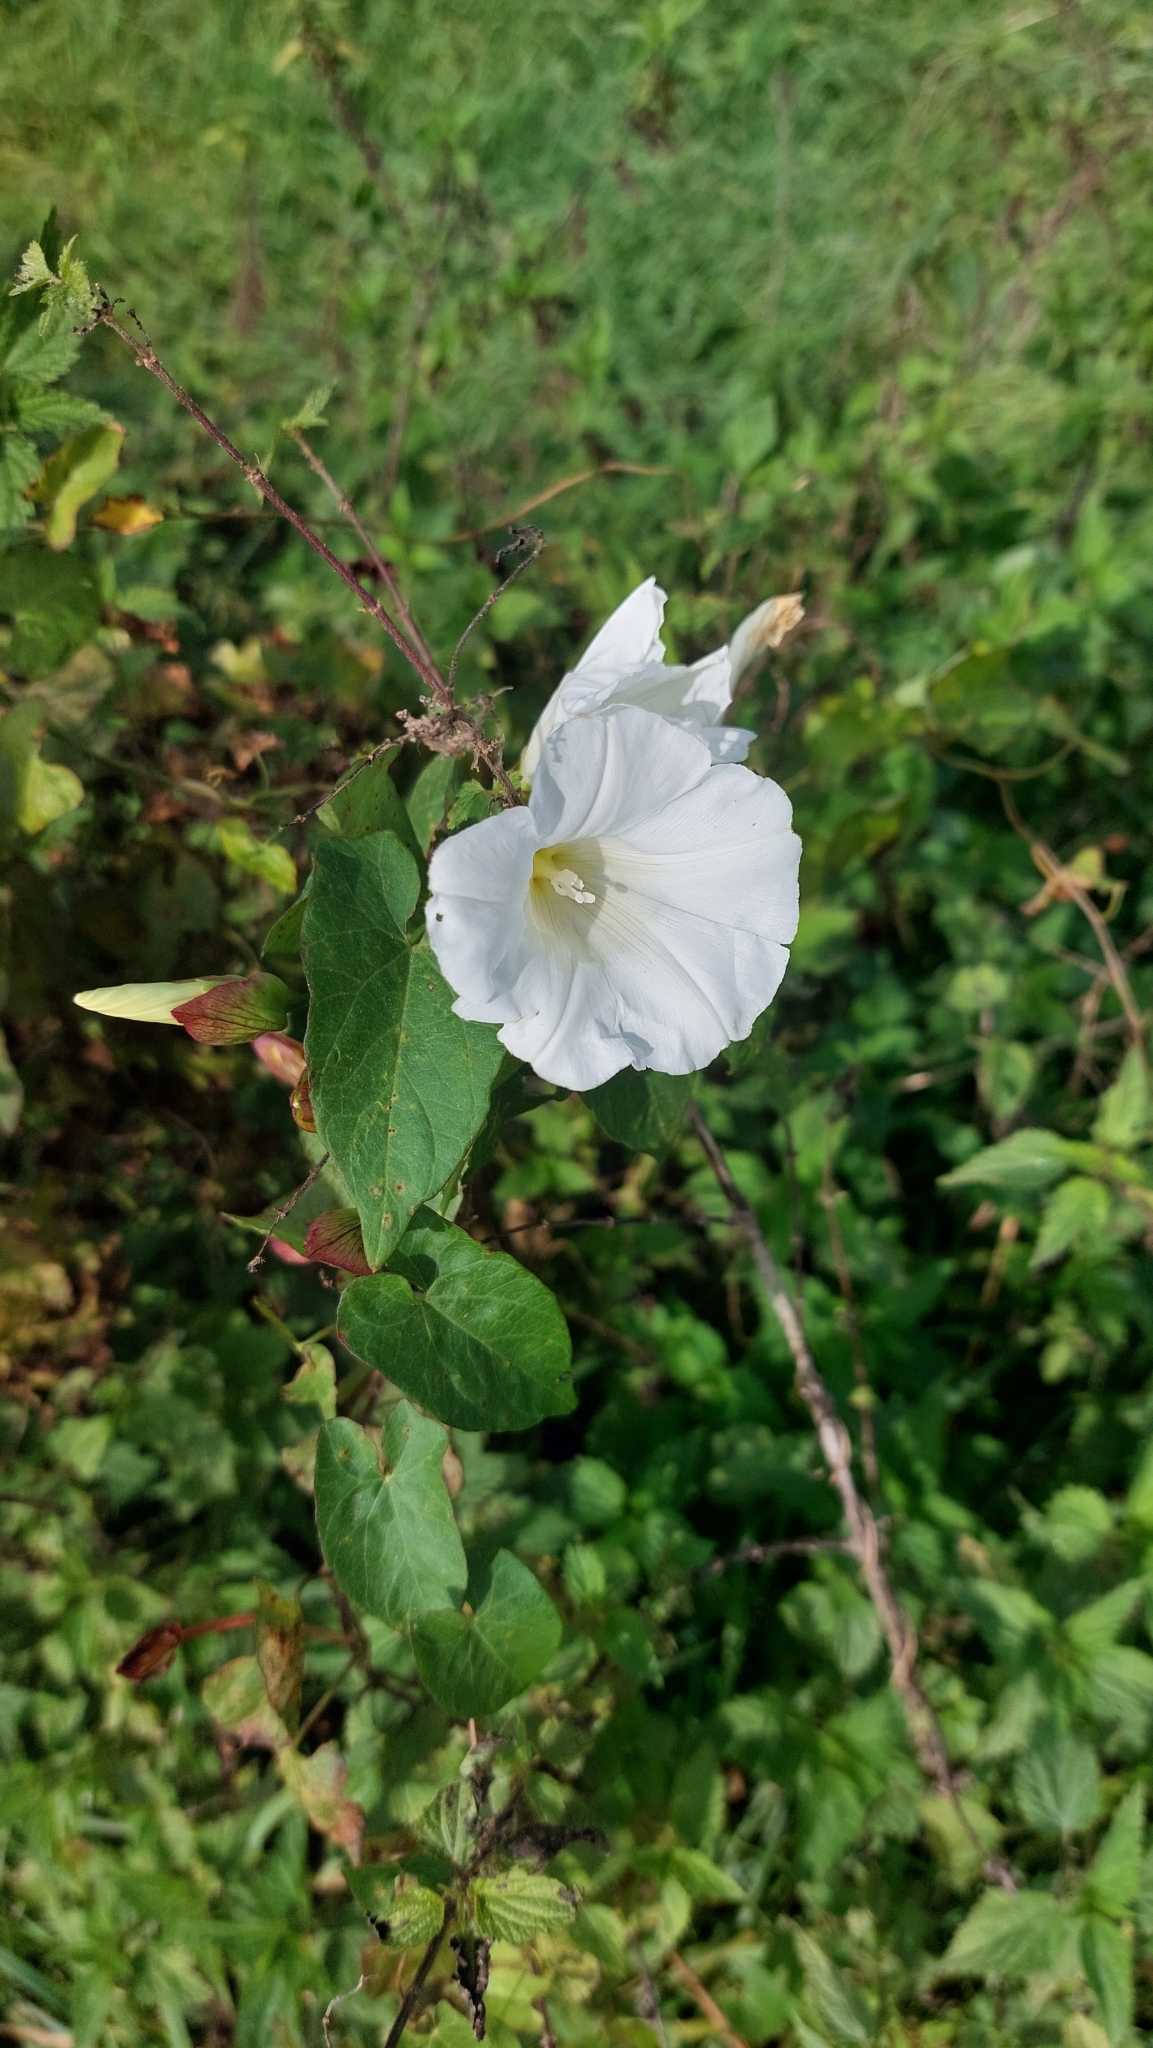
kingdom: Plantae
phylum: Tracheophyta
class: Magnoliopsida
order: Solanales
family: Convolvulaceae
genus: Calystegia
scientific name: Calystegia sepium
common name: Hedge bindweed
